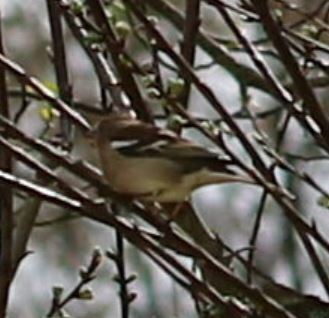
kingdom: Animalia
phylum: Chordata
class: Aves
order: Passeriformes
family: Fringillidae
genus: Fringilla
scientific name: Fringilla coelebs
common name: Common chaffinch
